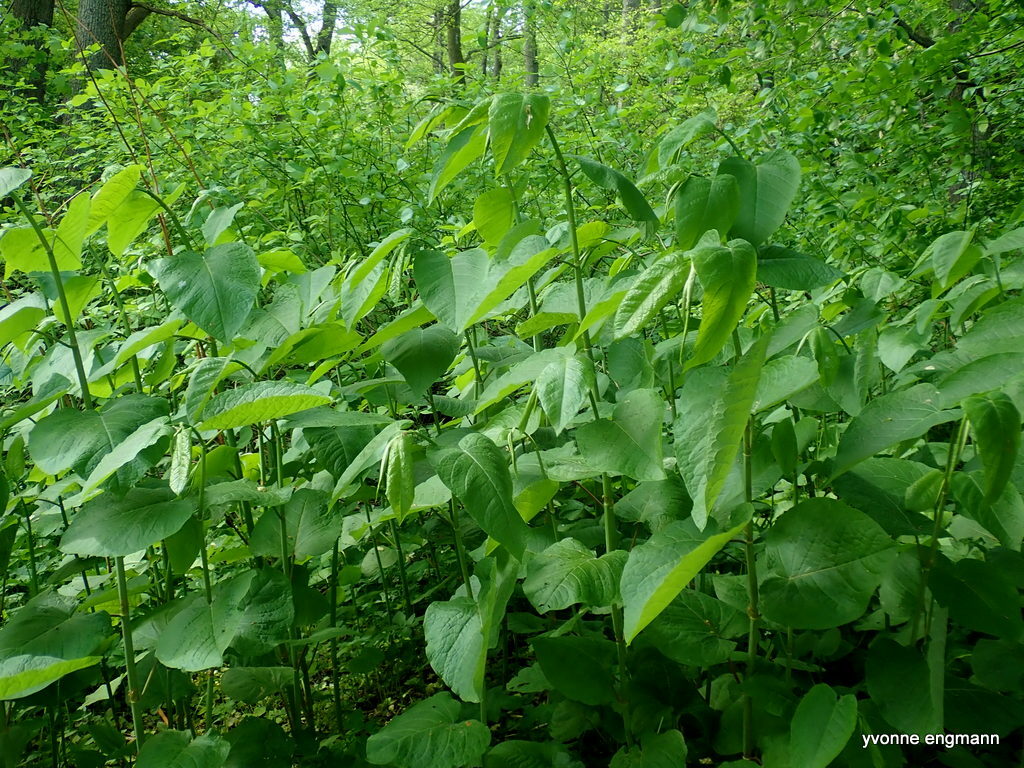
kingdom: Plantae
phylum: Tracheophyta
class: Magnoliopsida
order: Caryophyllales
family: Polygonaceae
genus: Reynoutria
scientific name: Reynoutria sachalinensis
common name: Giant knotweed
